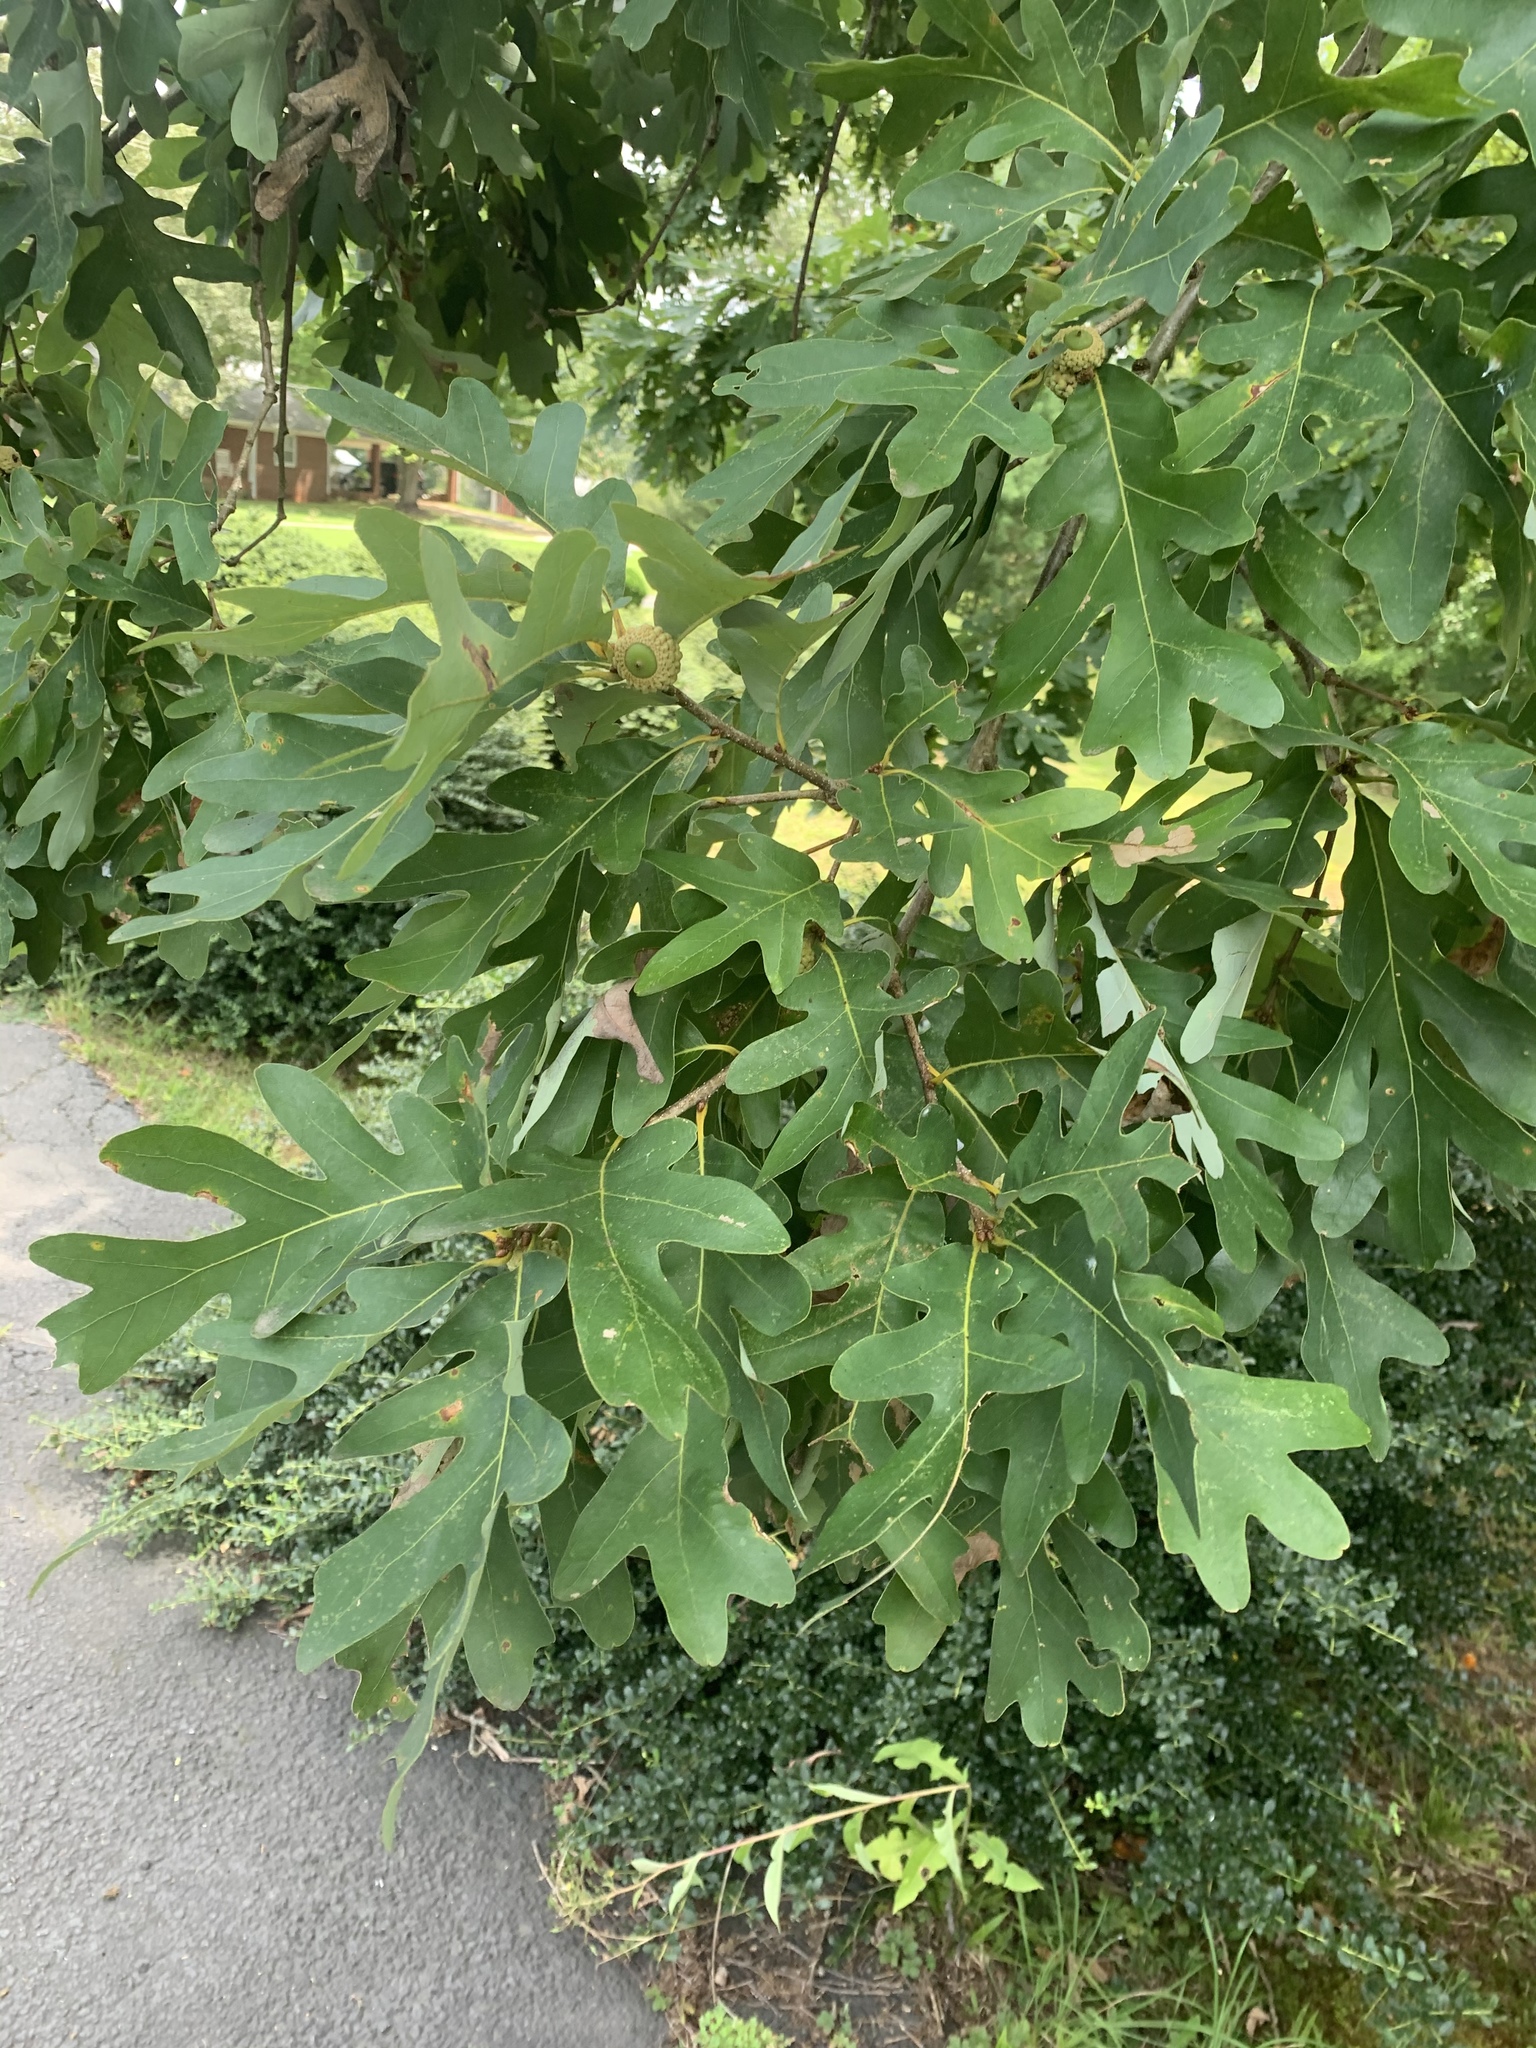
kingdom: Plantae
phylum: Tracheophyta
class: Magnoliopsida
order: Fagales
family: Fagaceae
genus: Quercus
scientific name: Quercus alba
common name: White oak
